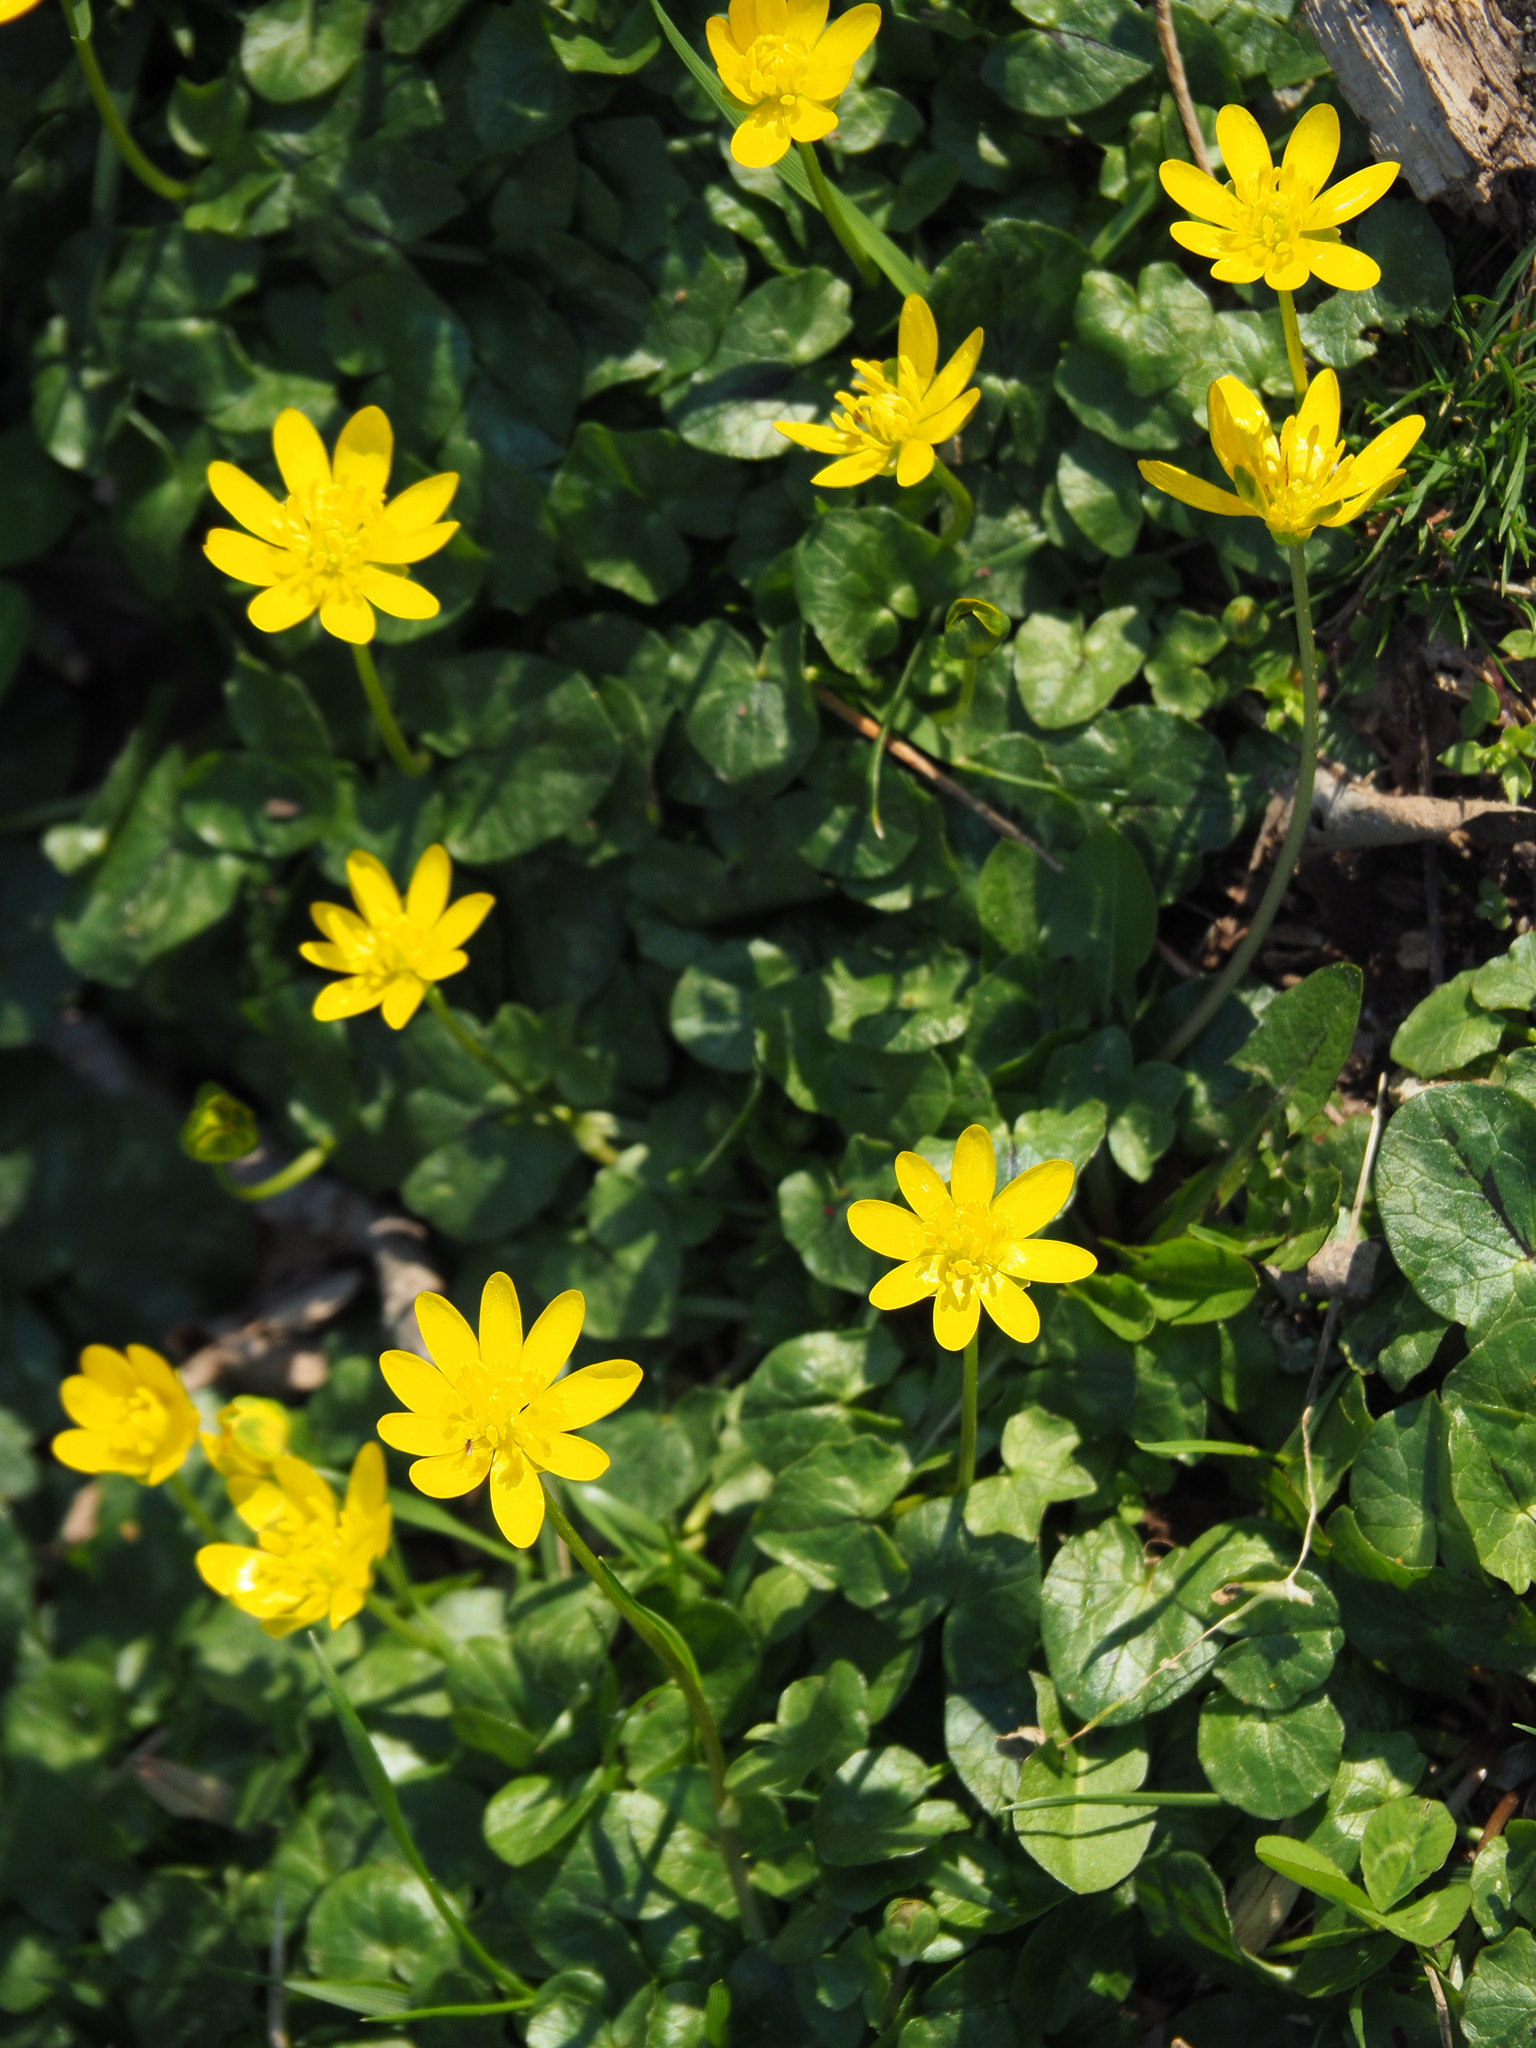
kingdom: Plantae
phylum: Tracheophyta
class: Magnoliopsida
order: Ranunculales
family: Ranunculaceae
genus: Ficaria
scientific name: Ficaria verna
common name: Lesser celandine
